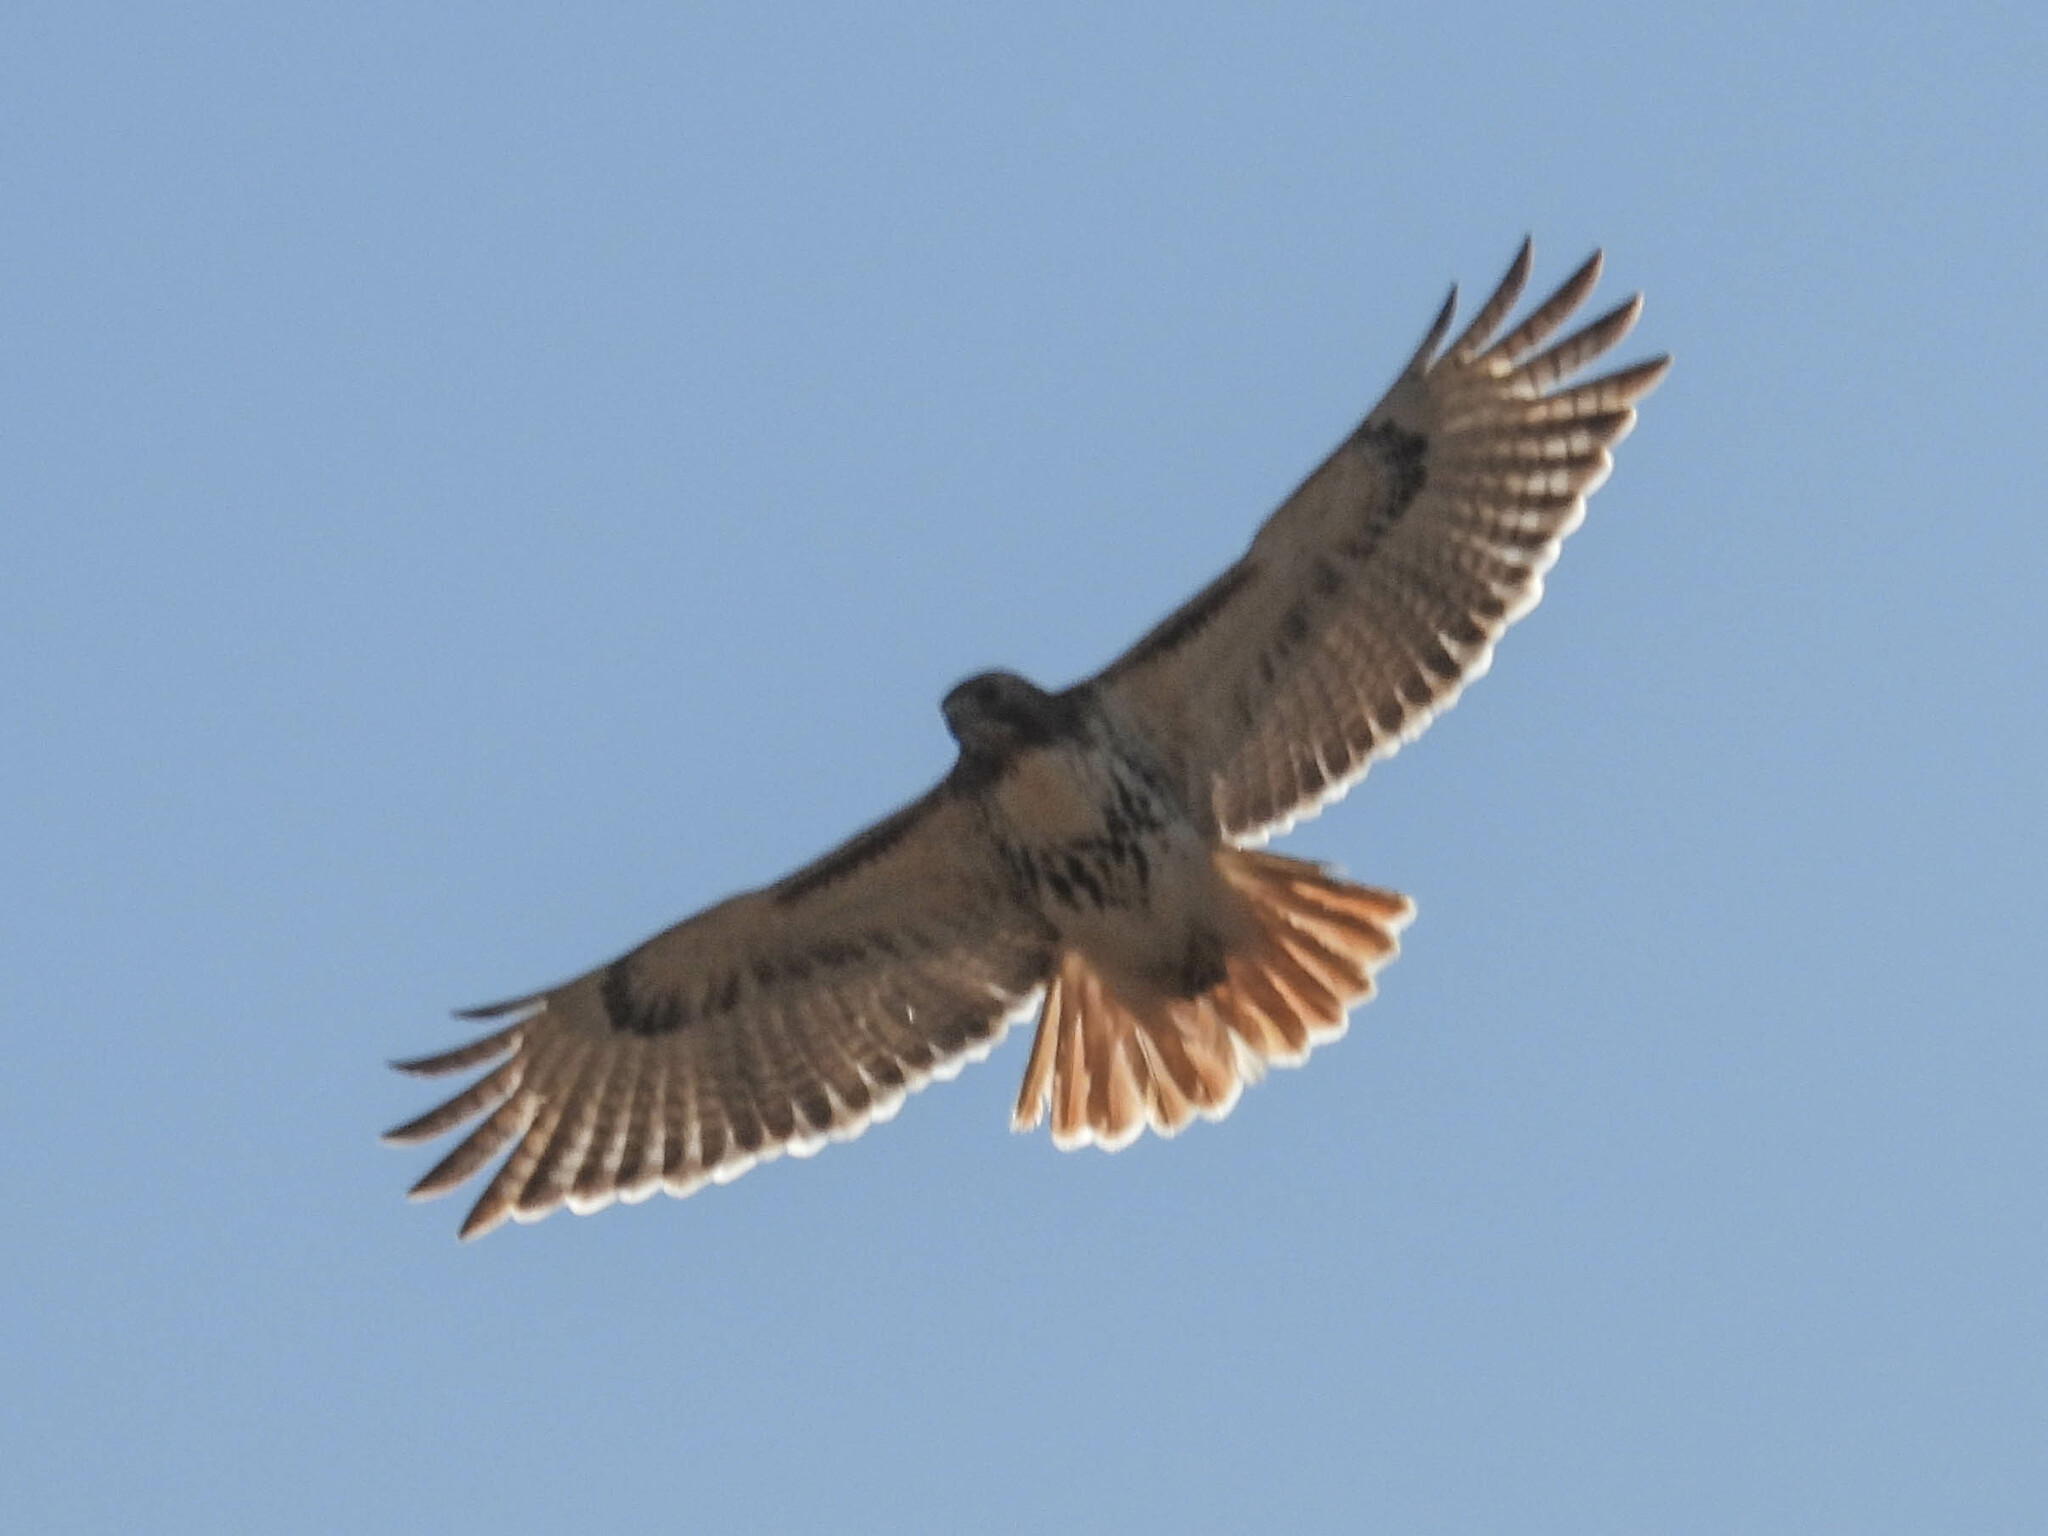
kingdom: Animalia
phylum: Chordata
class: Aves
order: Accipitriformes
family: Accipitridae
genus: Buteo
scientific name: Buteo jamaicensis
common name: Red-tailed hawk
